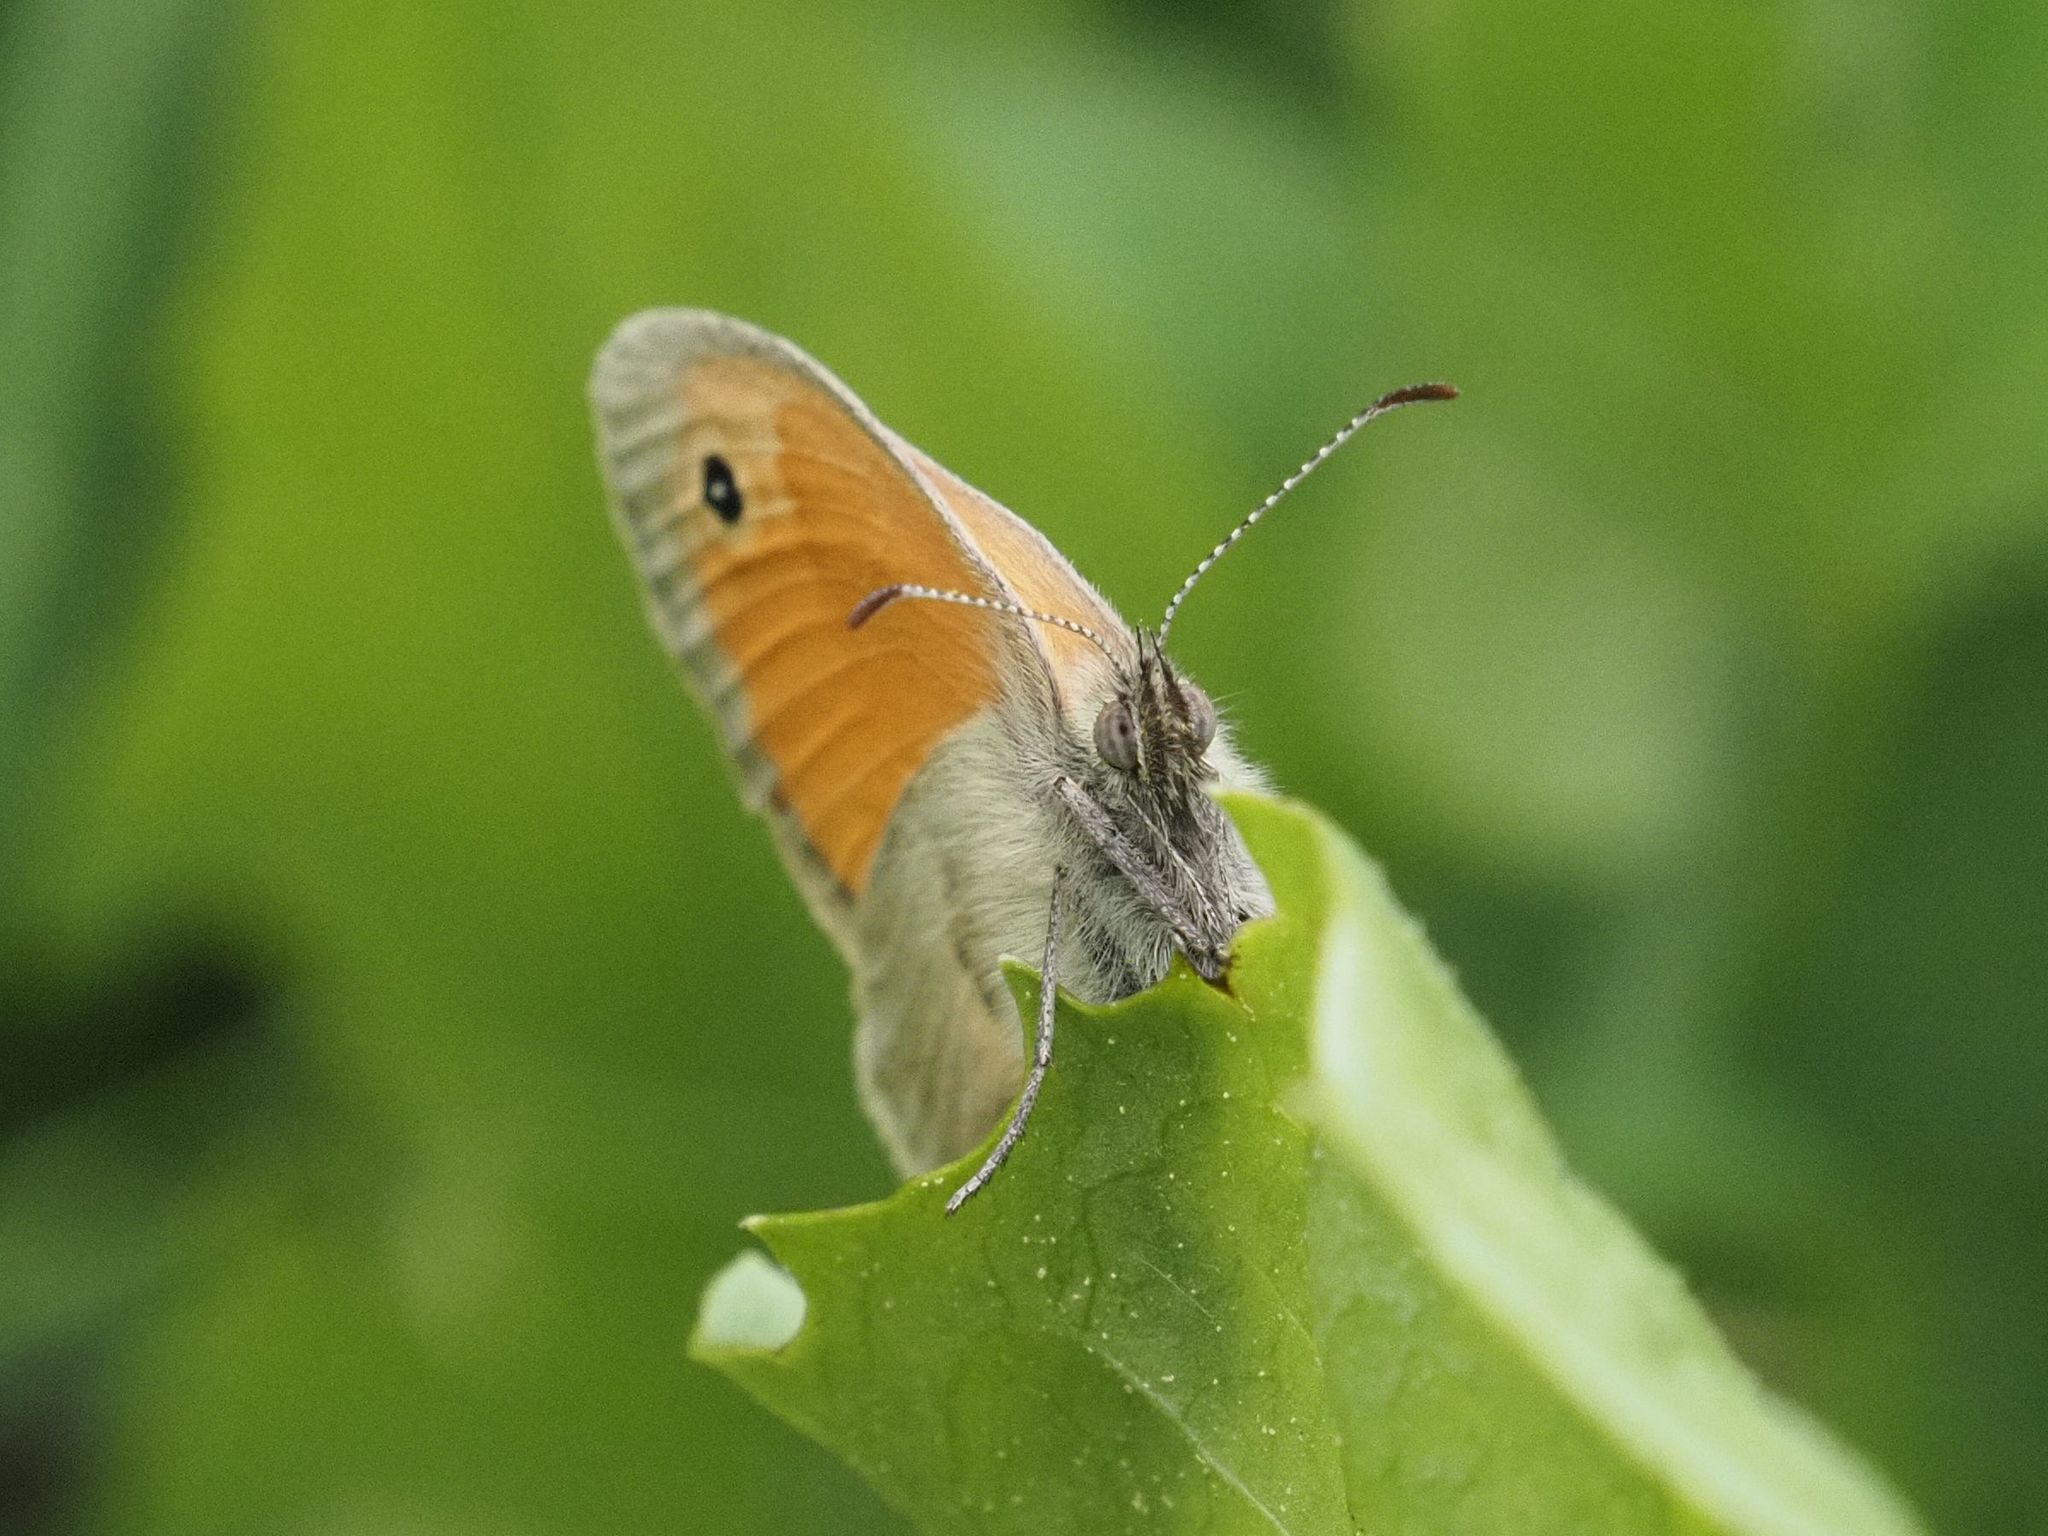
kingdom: Animalia
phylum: Arthropoda
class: Insecta
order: Lepidoptera
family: Nymphalidae
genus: Coenonympha
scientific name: Coenonympha pamphilus
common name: Small heath
